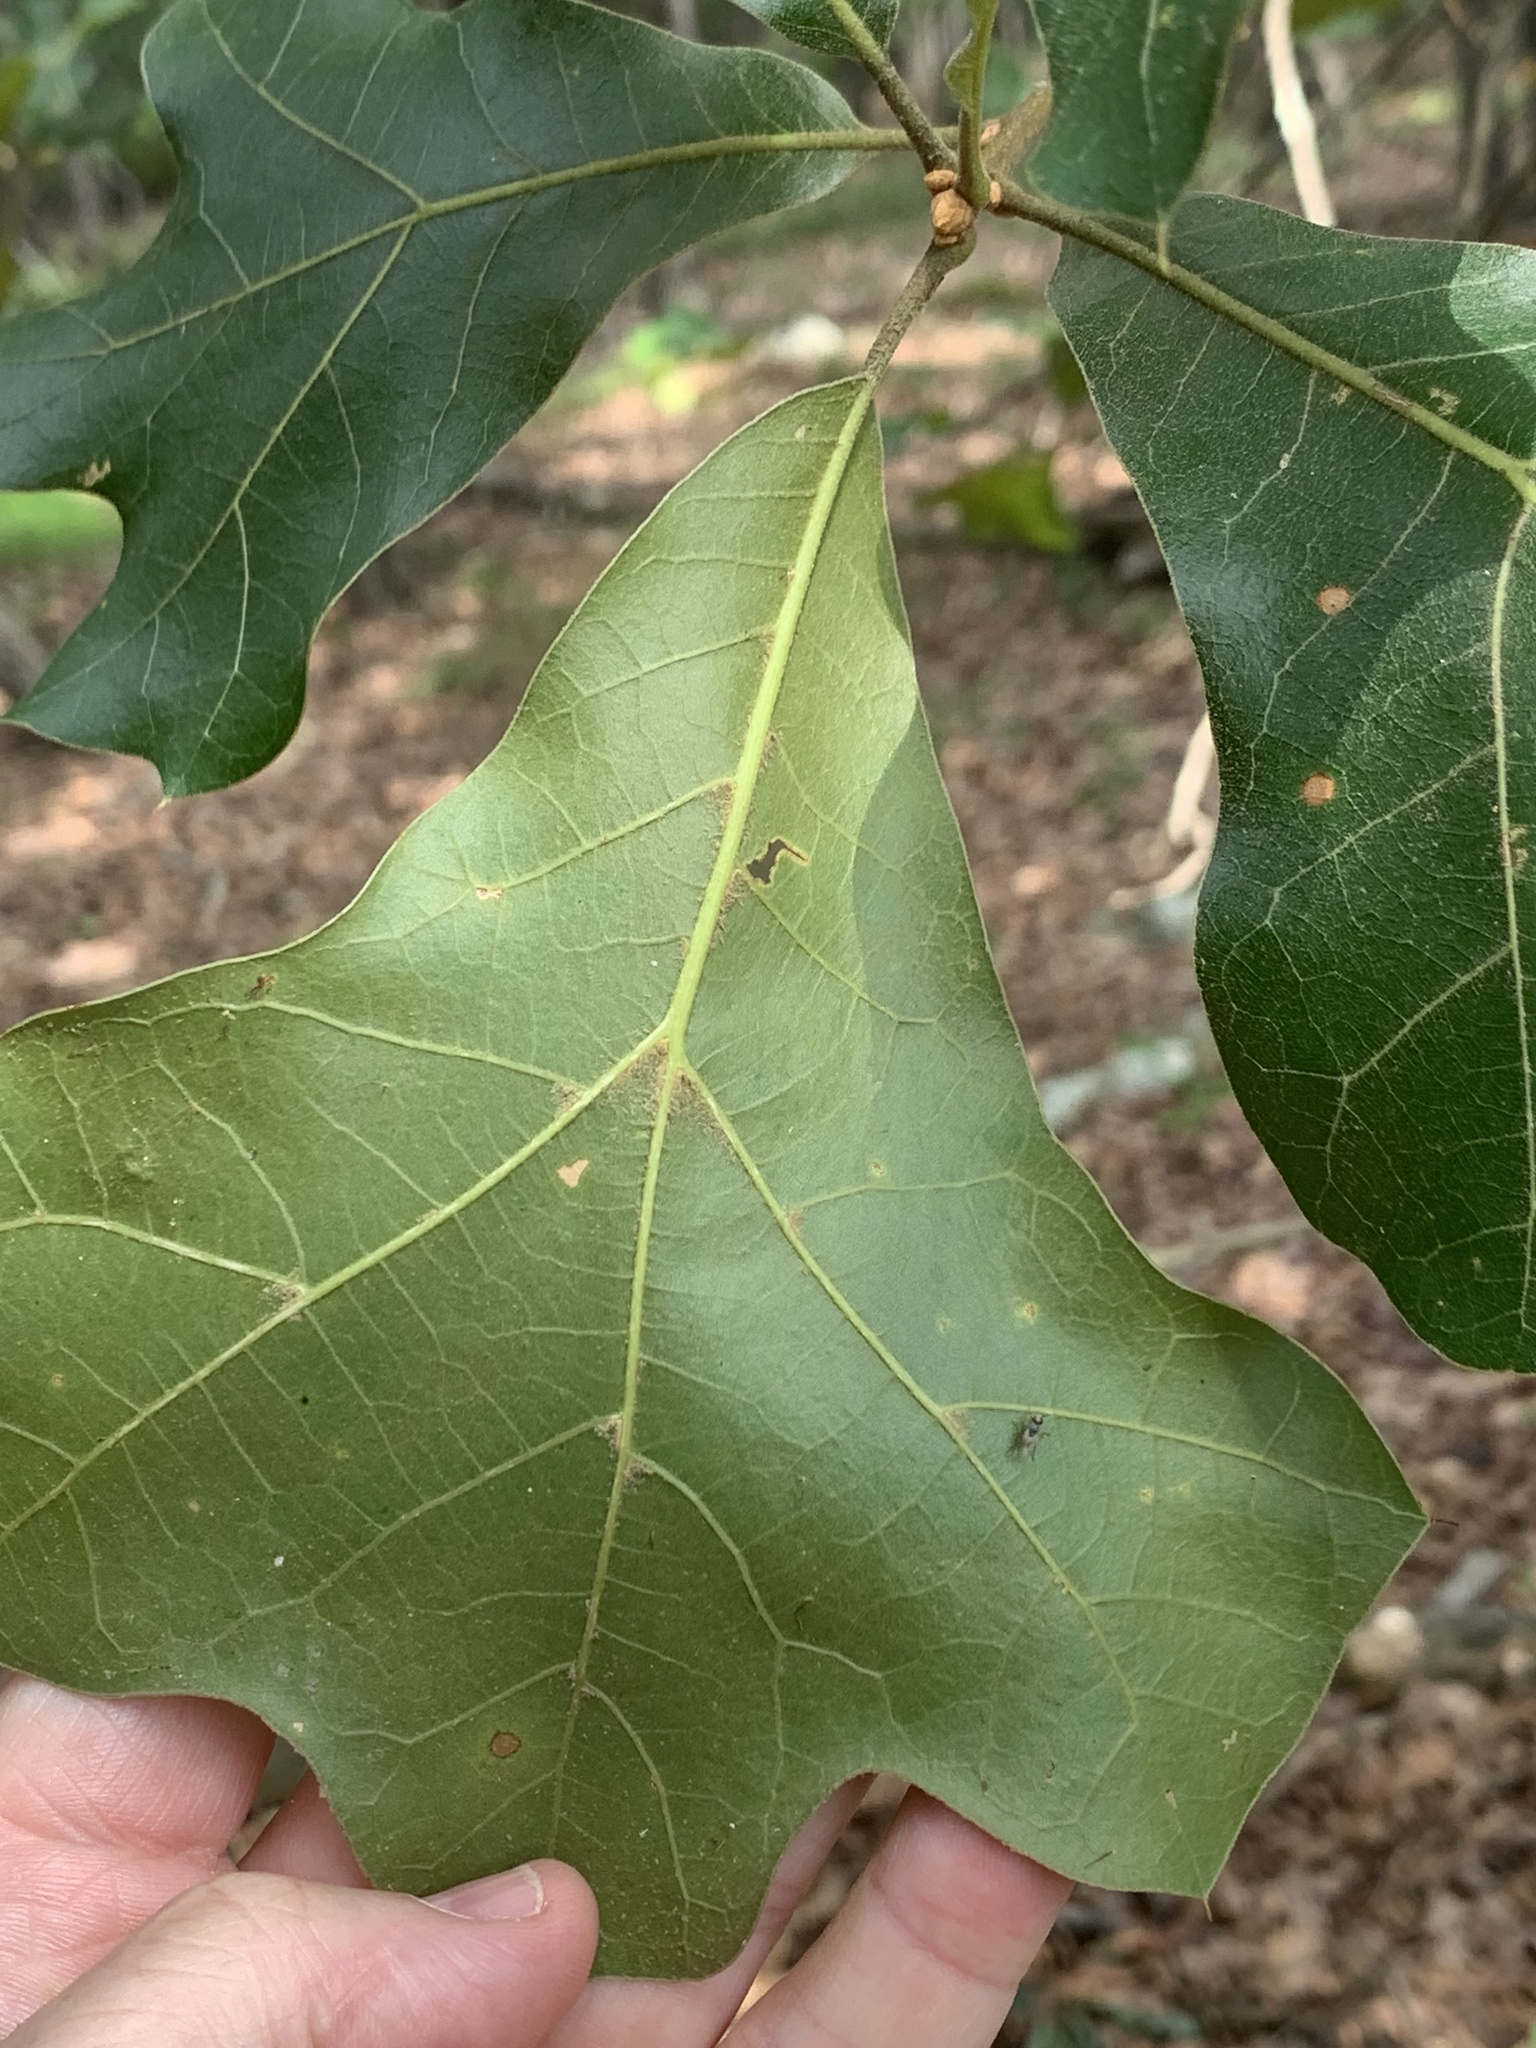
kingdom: Plantae
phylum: Tracheophyta
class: Magnoliopsida
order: Fagales
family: Fagaceae
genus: Quercus
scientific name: Quercus marilandica
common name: Blackjack oak
